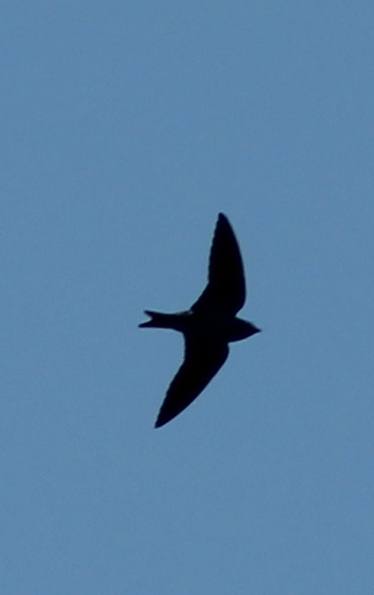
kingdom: Animalia
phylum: Chordata
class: Aves
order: Passeriformes
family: Hirundinidae
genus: Progne
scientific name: Progne subis
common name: Purple martin
